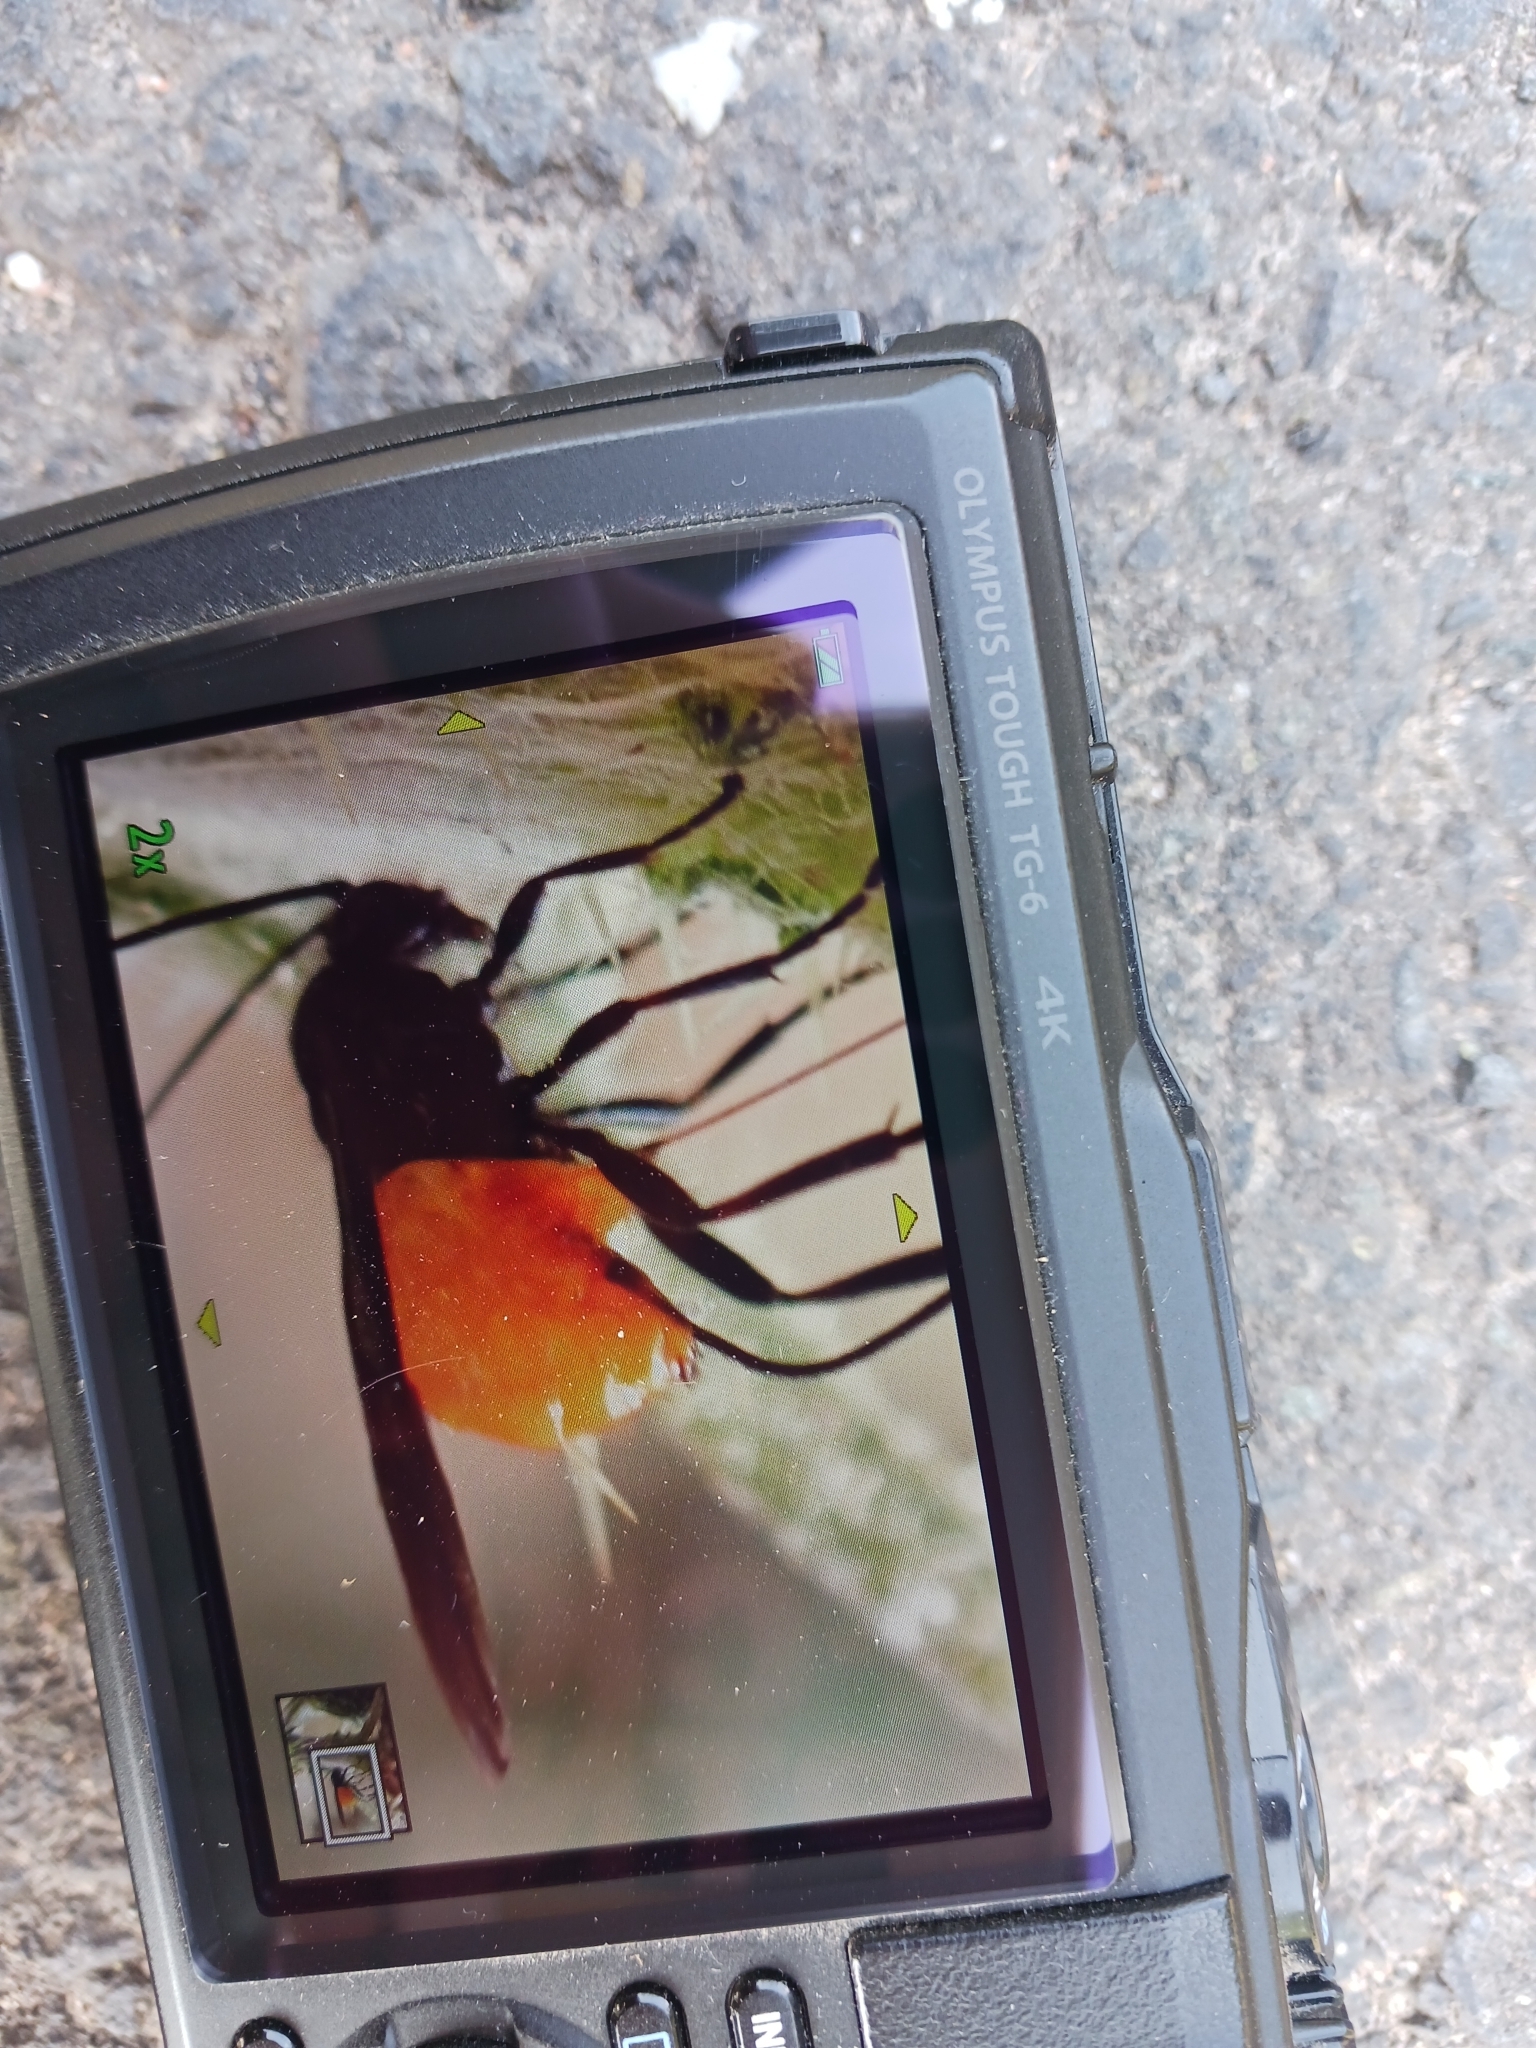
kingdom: Animalia
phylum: Arthropoda
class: Insecta
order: Hymenoptera
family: Argidae
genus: Arge
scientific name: Arge pagana
